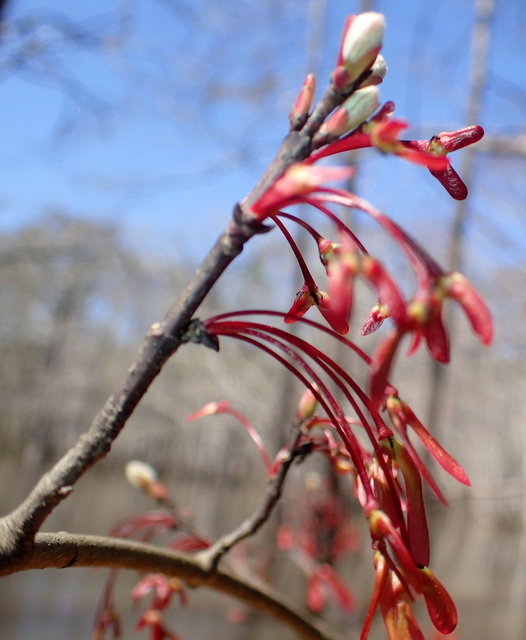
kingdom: Plantae
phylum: Tracheophyta
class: Magnoliopsida
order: Sapindales
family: Sapindaceae
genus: Acer
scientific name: Acer rubrum
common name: Red maple
